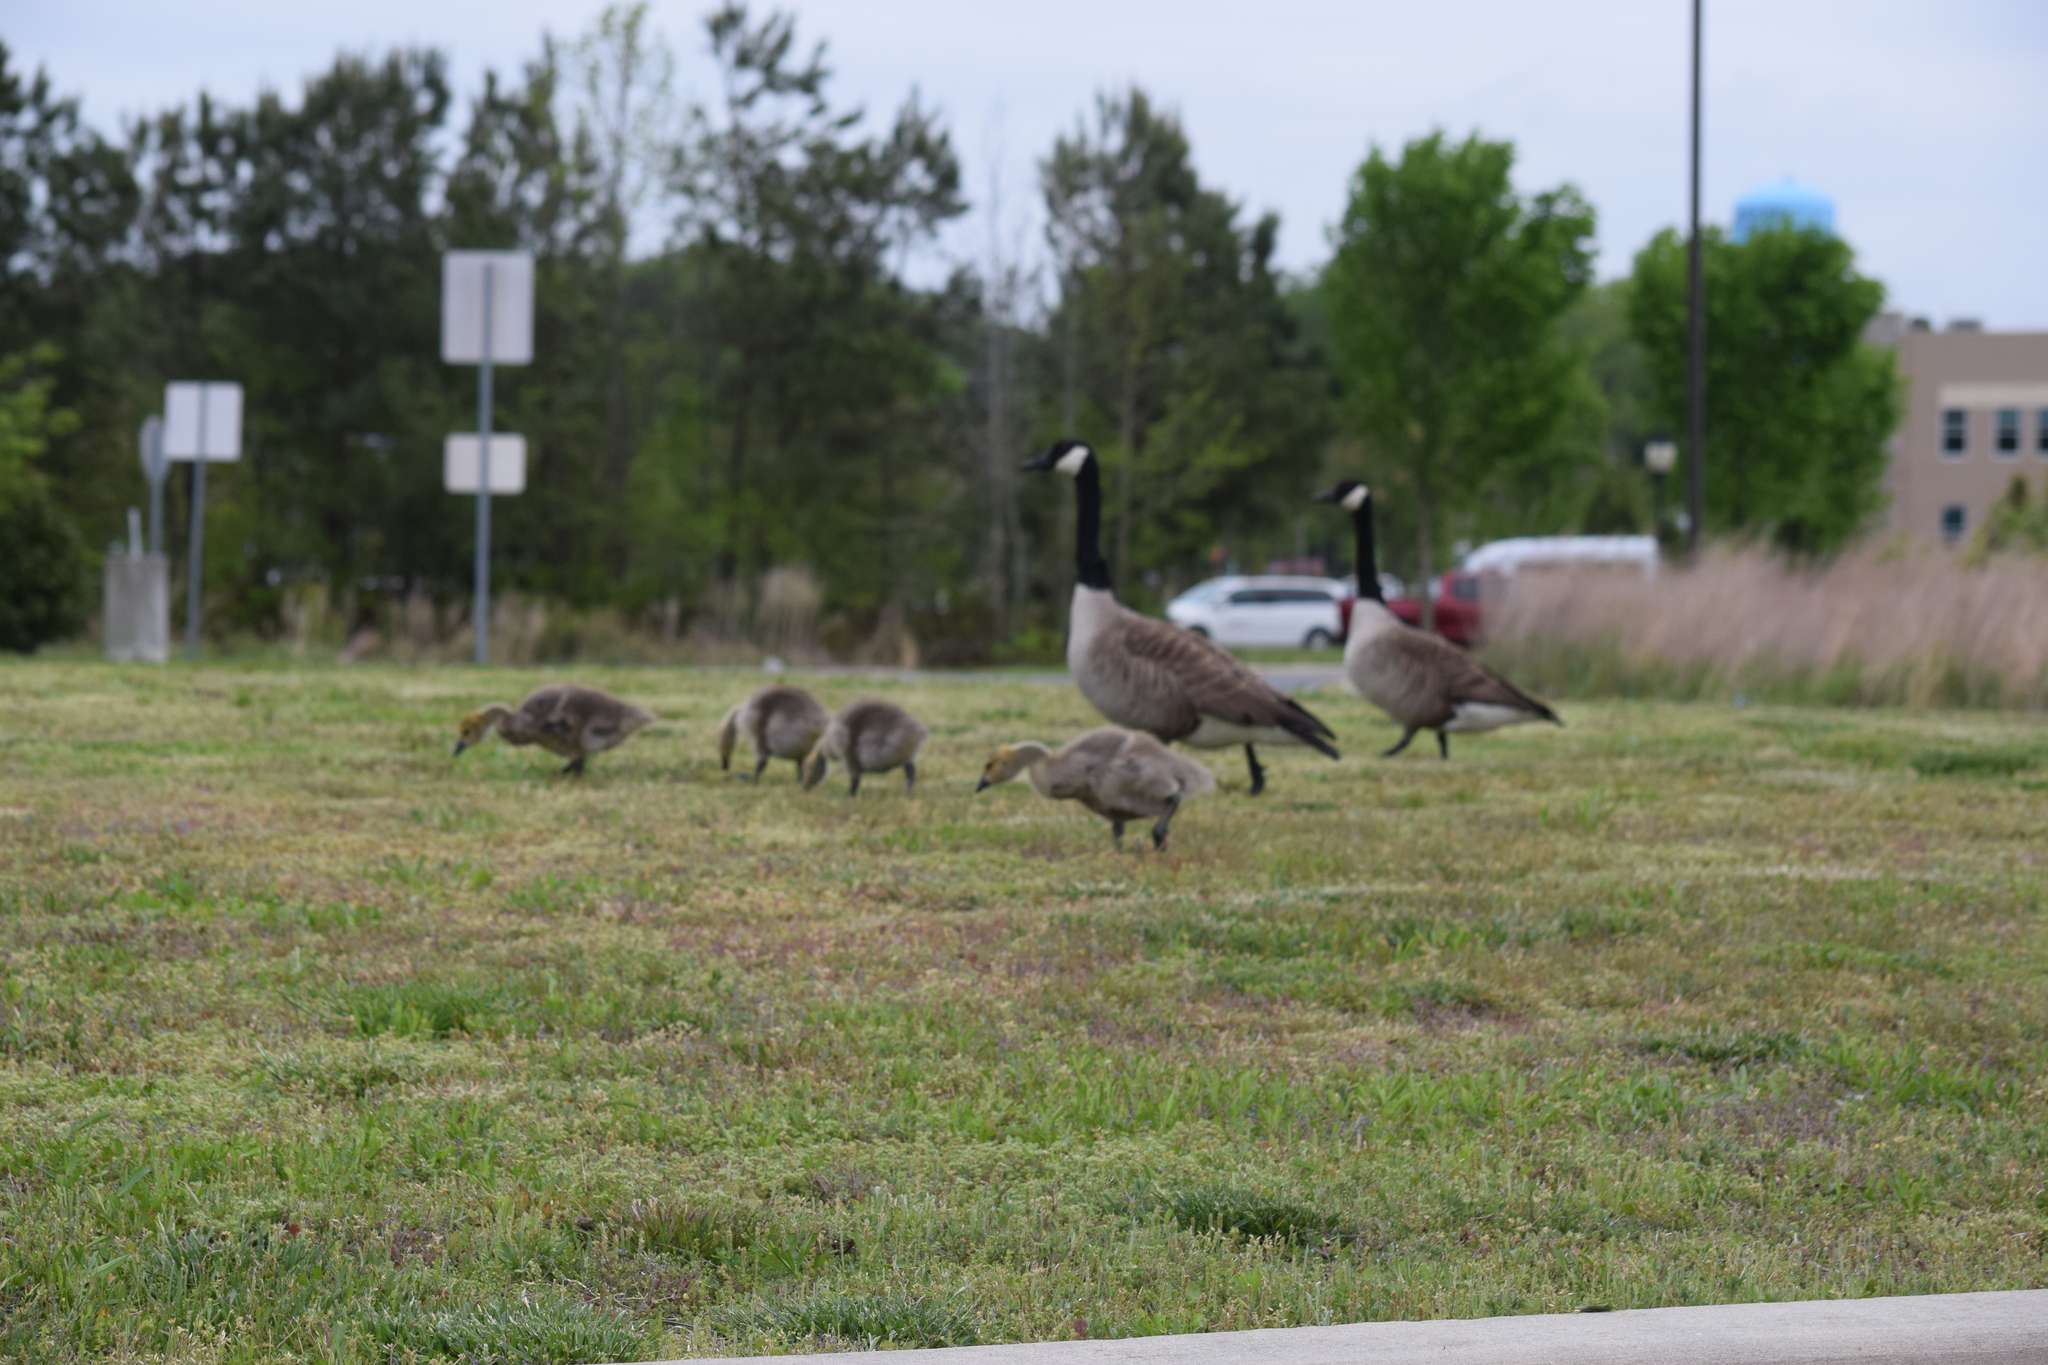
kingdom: Animalia
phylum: Chordata
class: Aves
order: Anseriformes
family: Anatidae
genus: Branta
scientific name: Branta canadensis
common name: Canada goose
